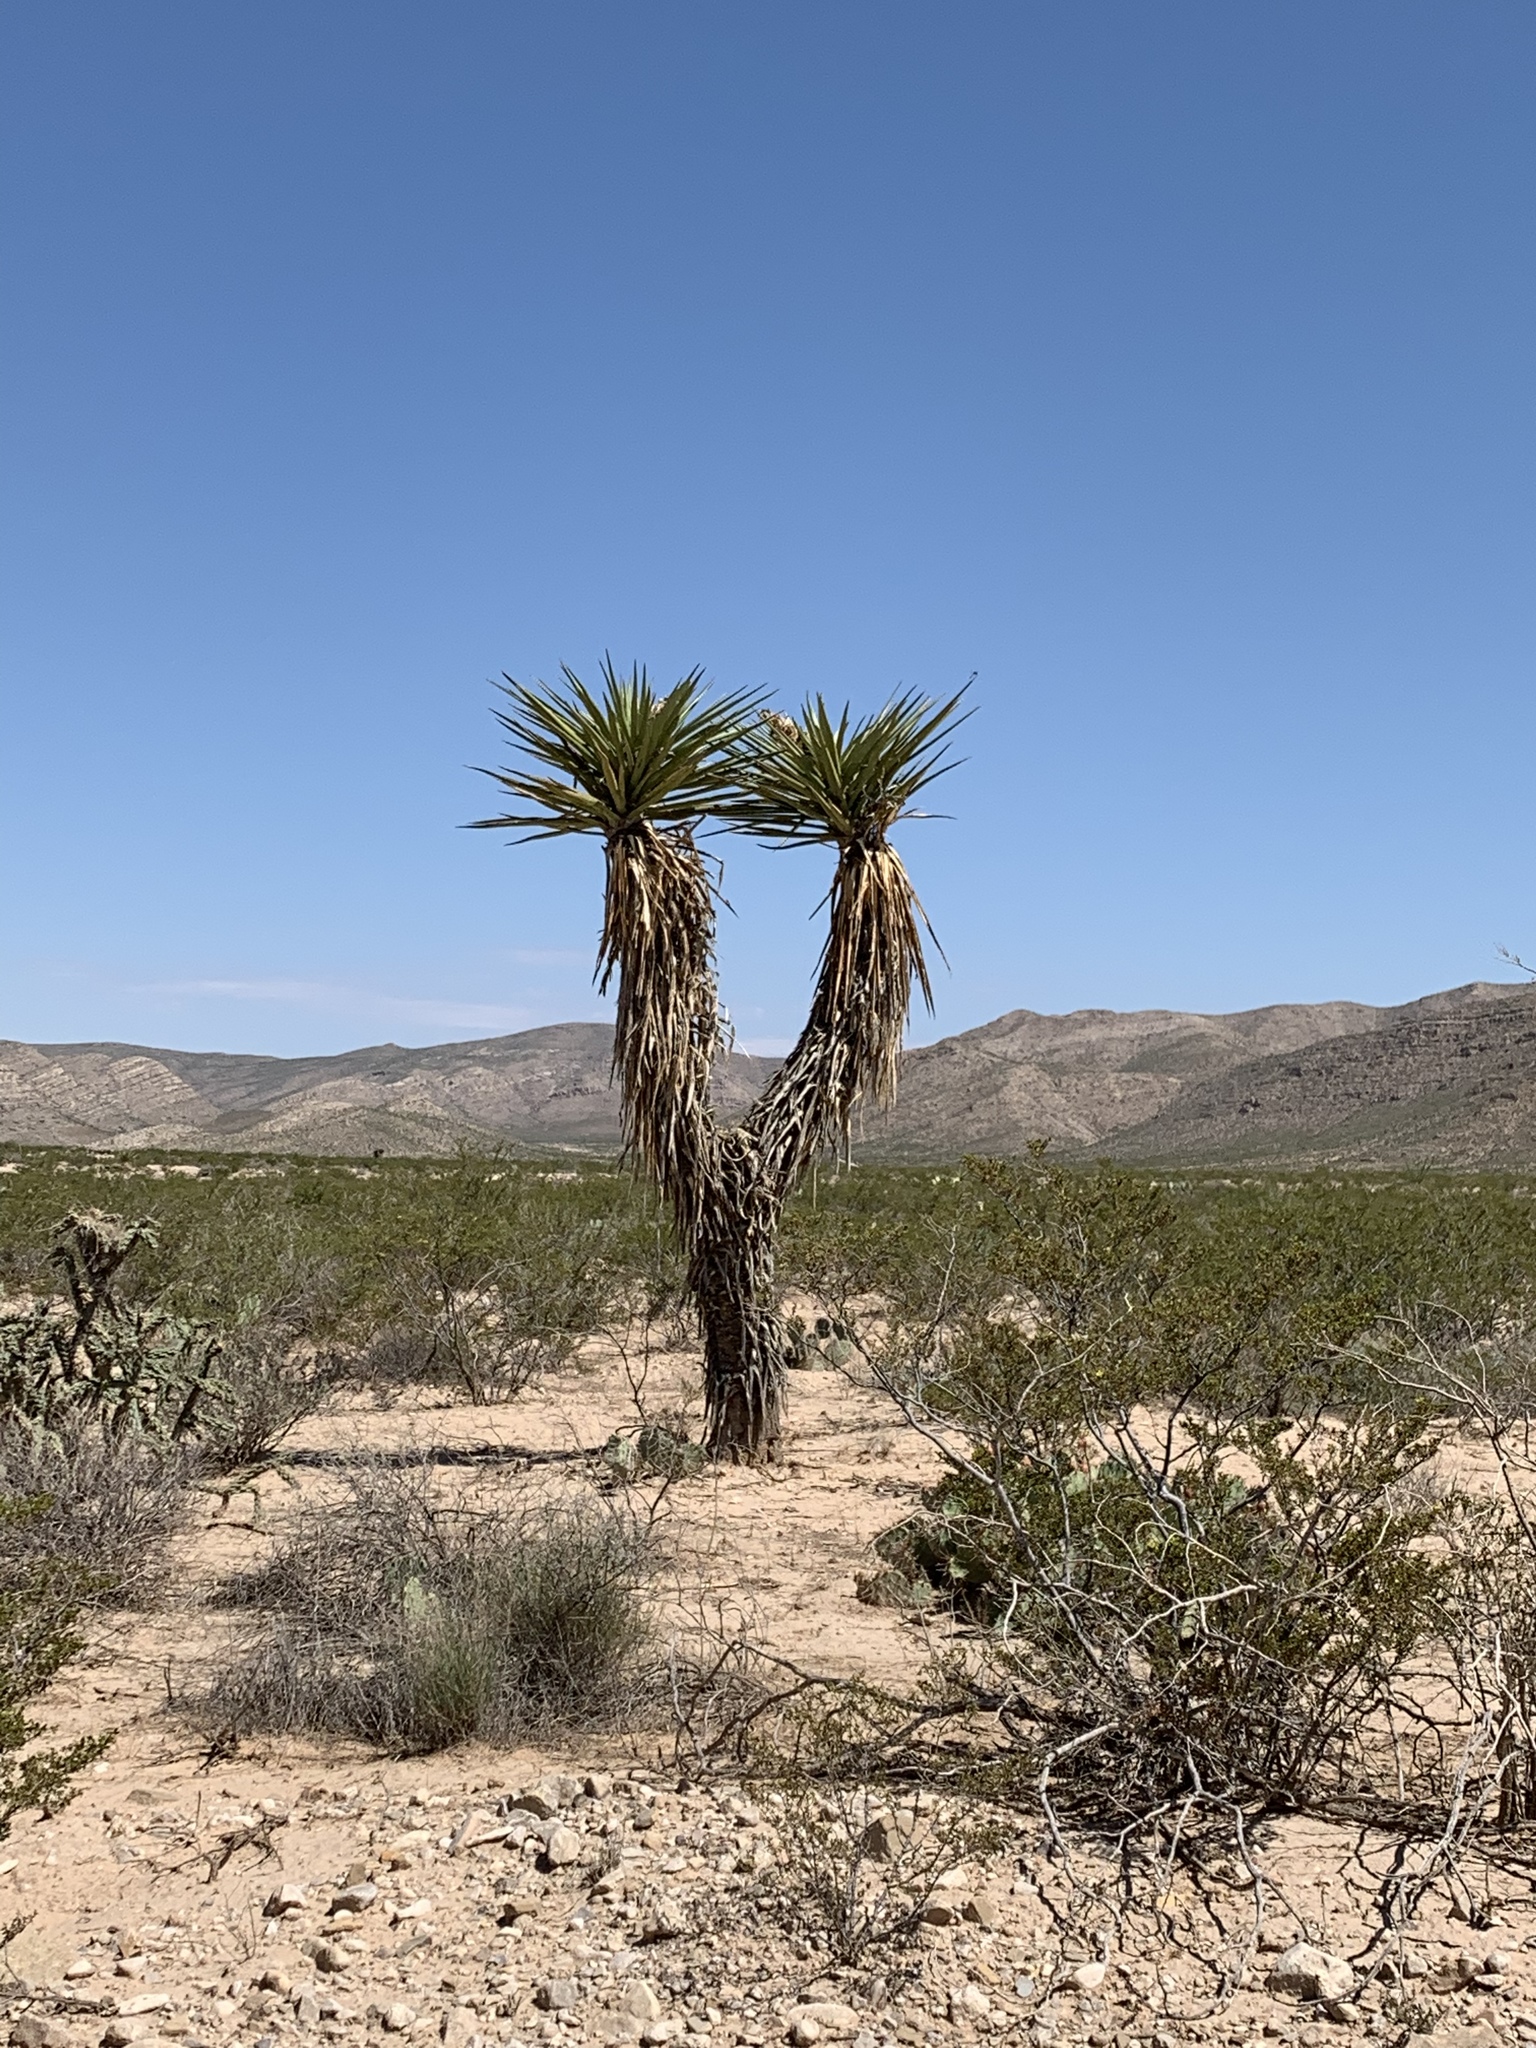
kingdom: Plantae
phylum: Tracheophyta
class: Liliopsida
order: Asparagales
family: Asparagaceae
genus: Yucca
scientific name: Yucca treculiana
